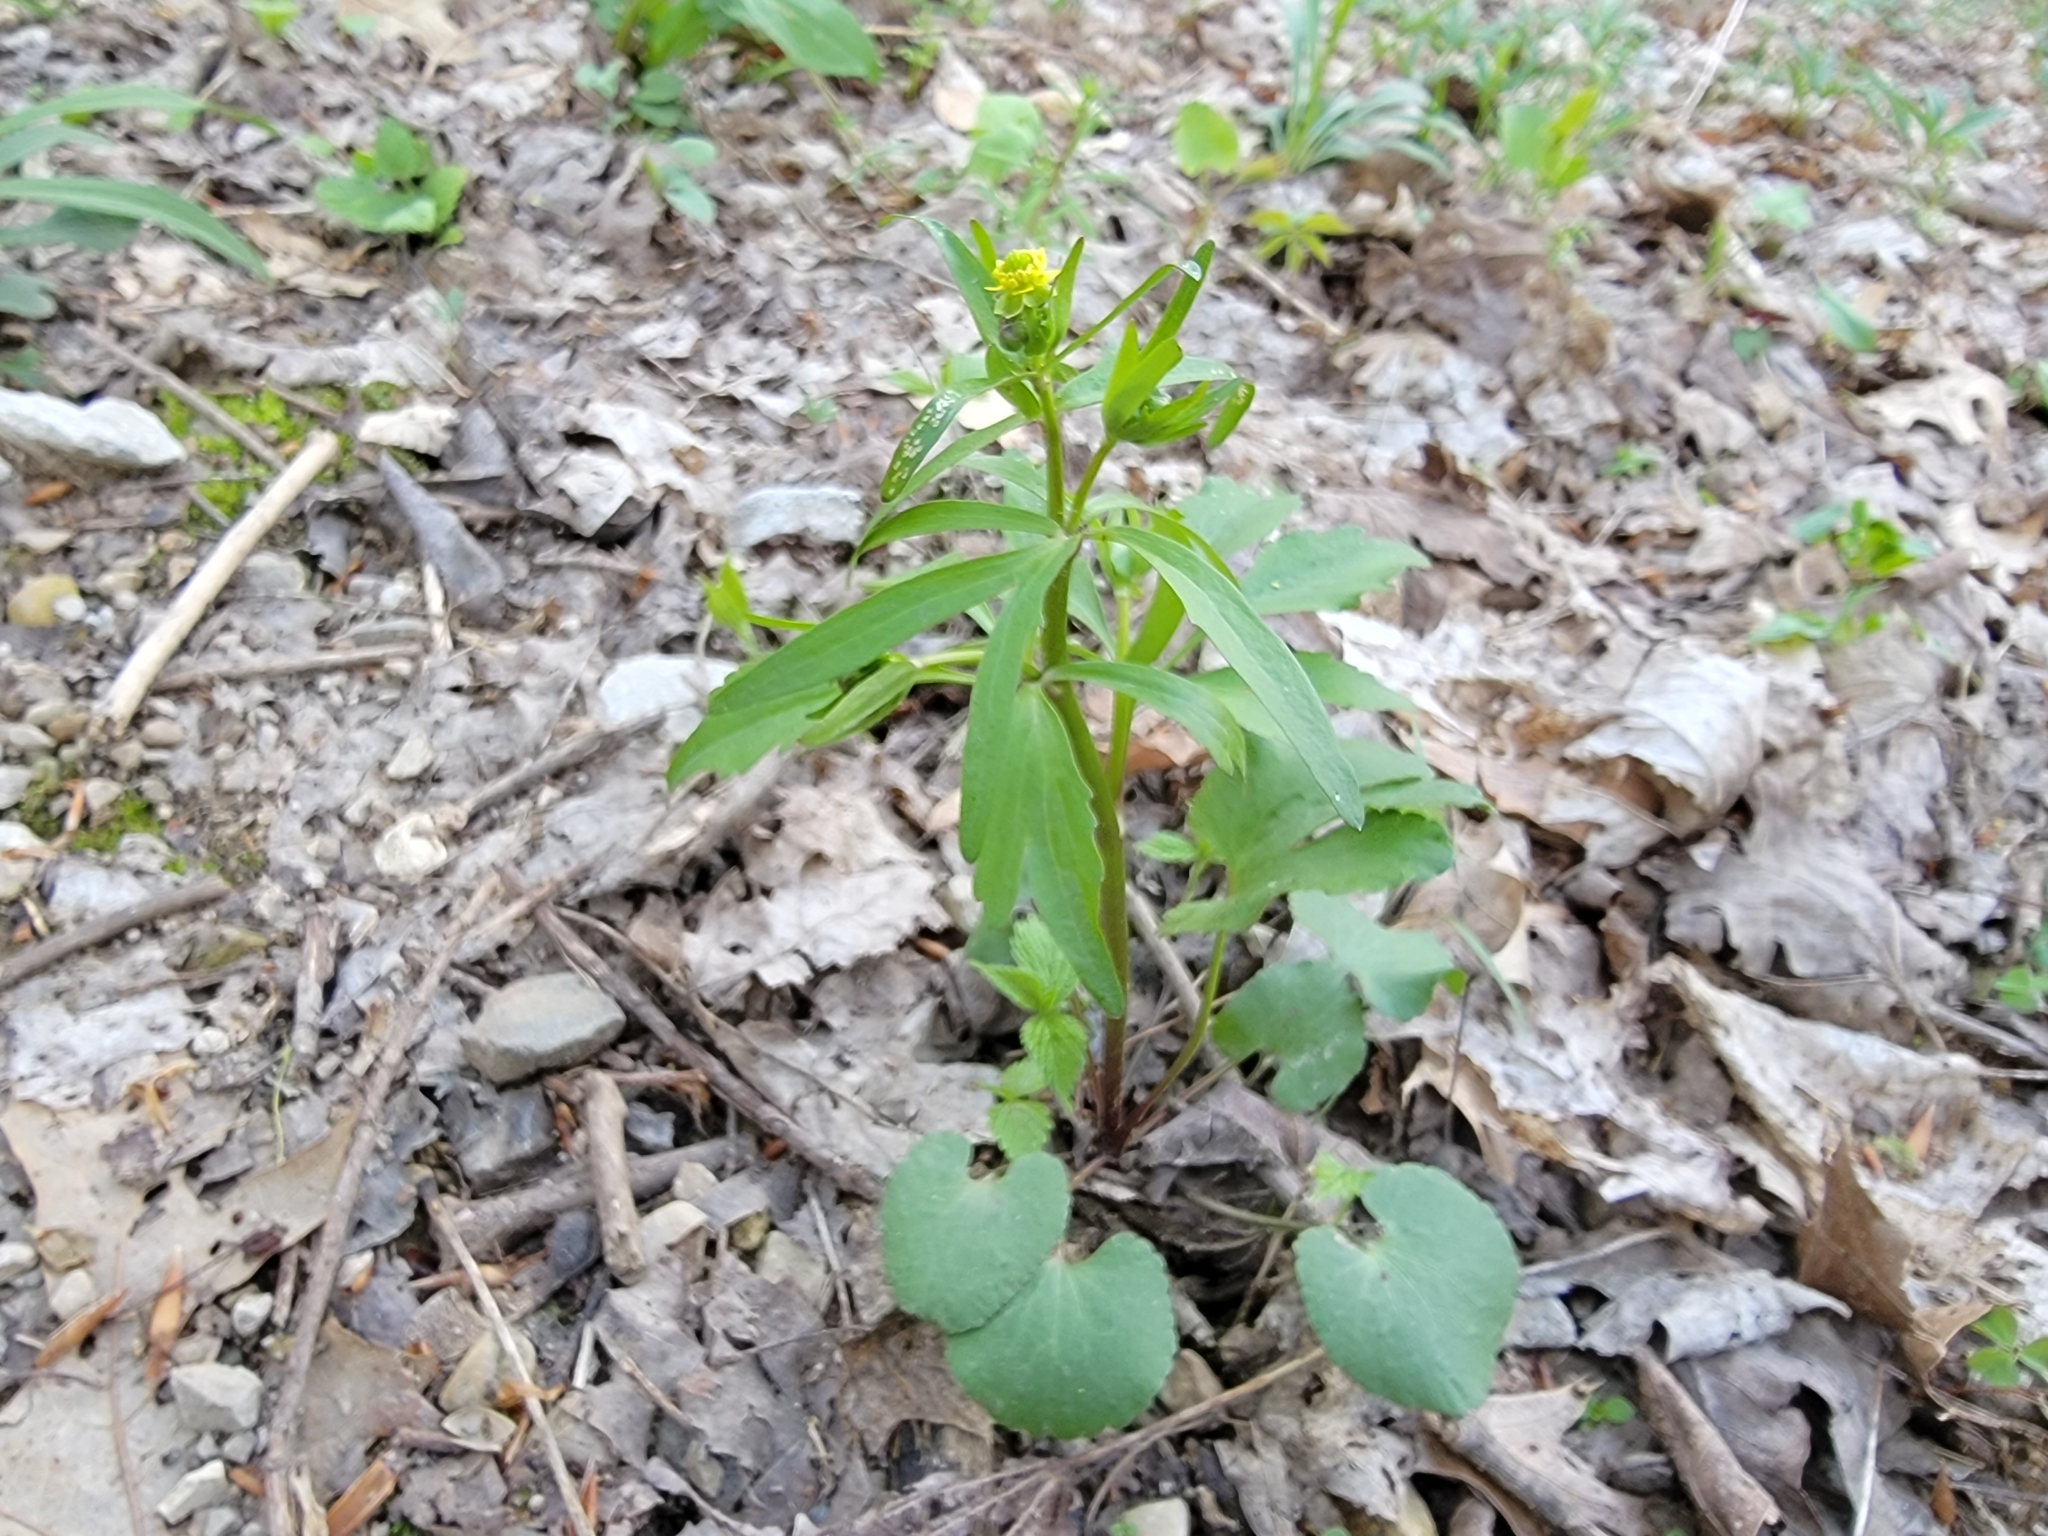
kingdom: Plantae
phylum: Tracheophyta
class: Magnoliopsida
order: Ranunculales
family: Ranunculaceae
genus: Ranunculus
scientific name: Ranunculus abortivus
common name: Early wood buttercup
